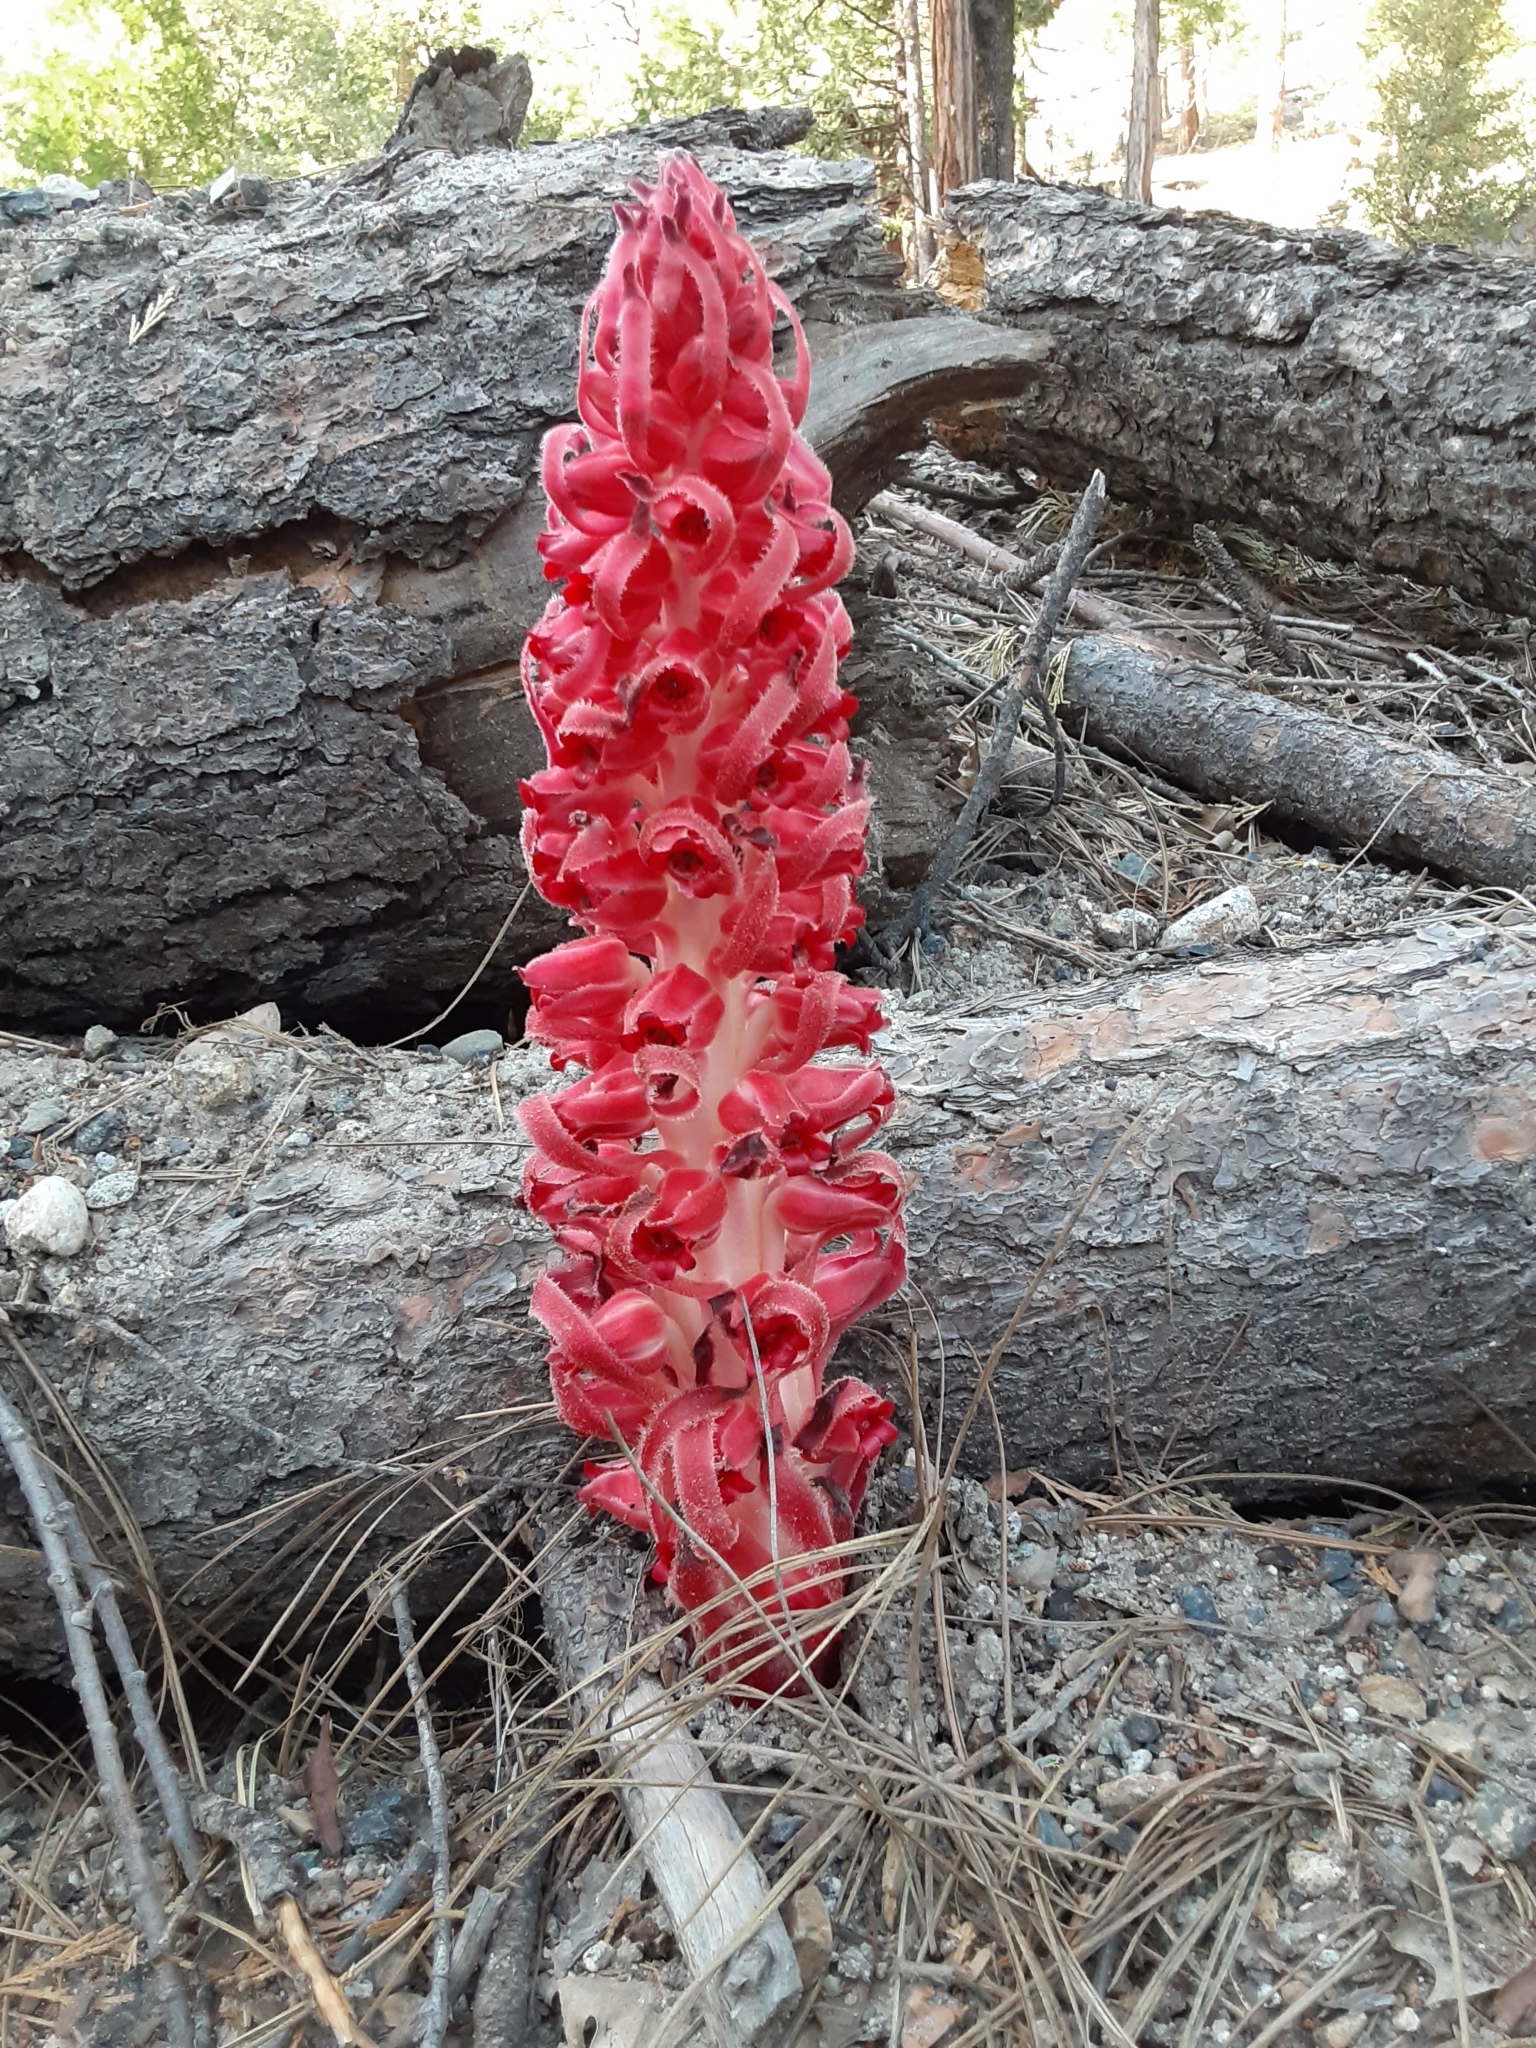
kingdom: Plantae
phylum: Tracheophyta
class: Magnoliopsida
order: Ericales
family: Ericaceae
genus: Sarcodes
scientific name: Sarcodes sanguinea
